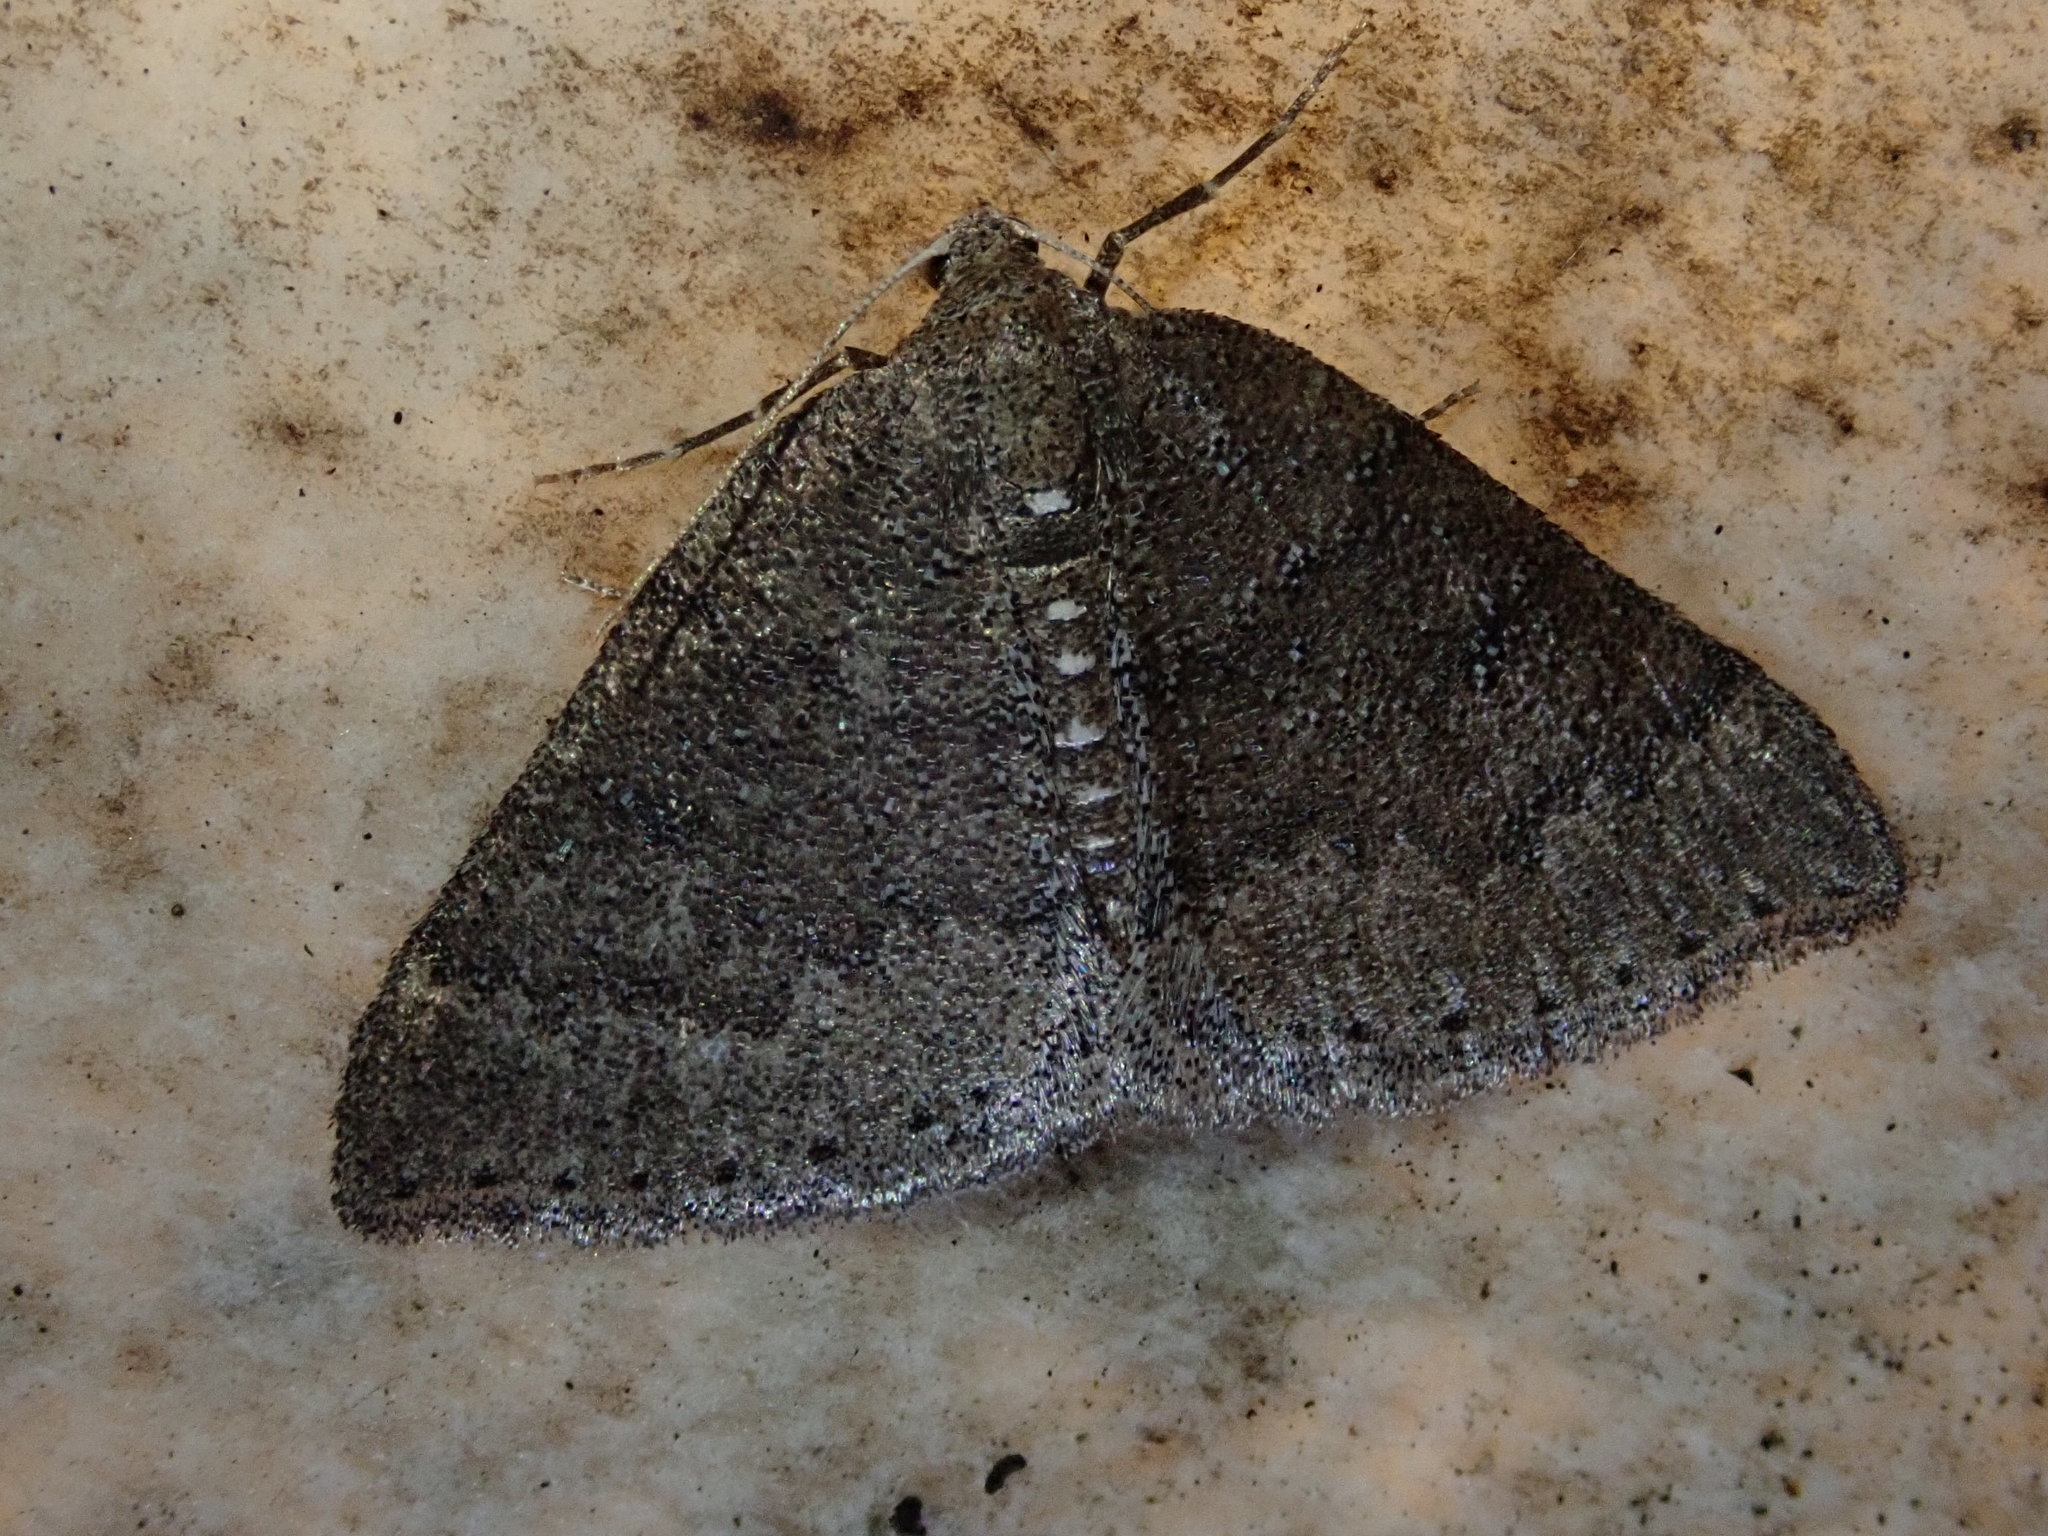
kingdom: Animalia
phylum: Arthropoda
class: Insecta
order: Lepidoptera
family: Geometridae
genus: Aleucis
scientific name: Aleucis distinctata
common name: Sloe carpet
